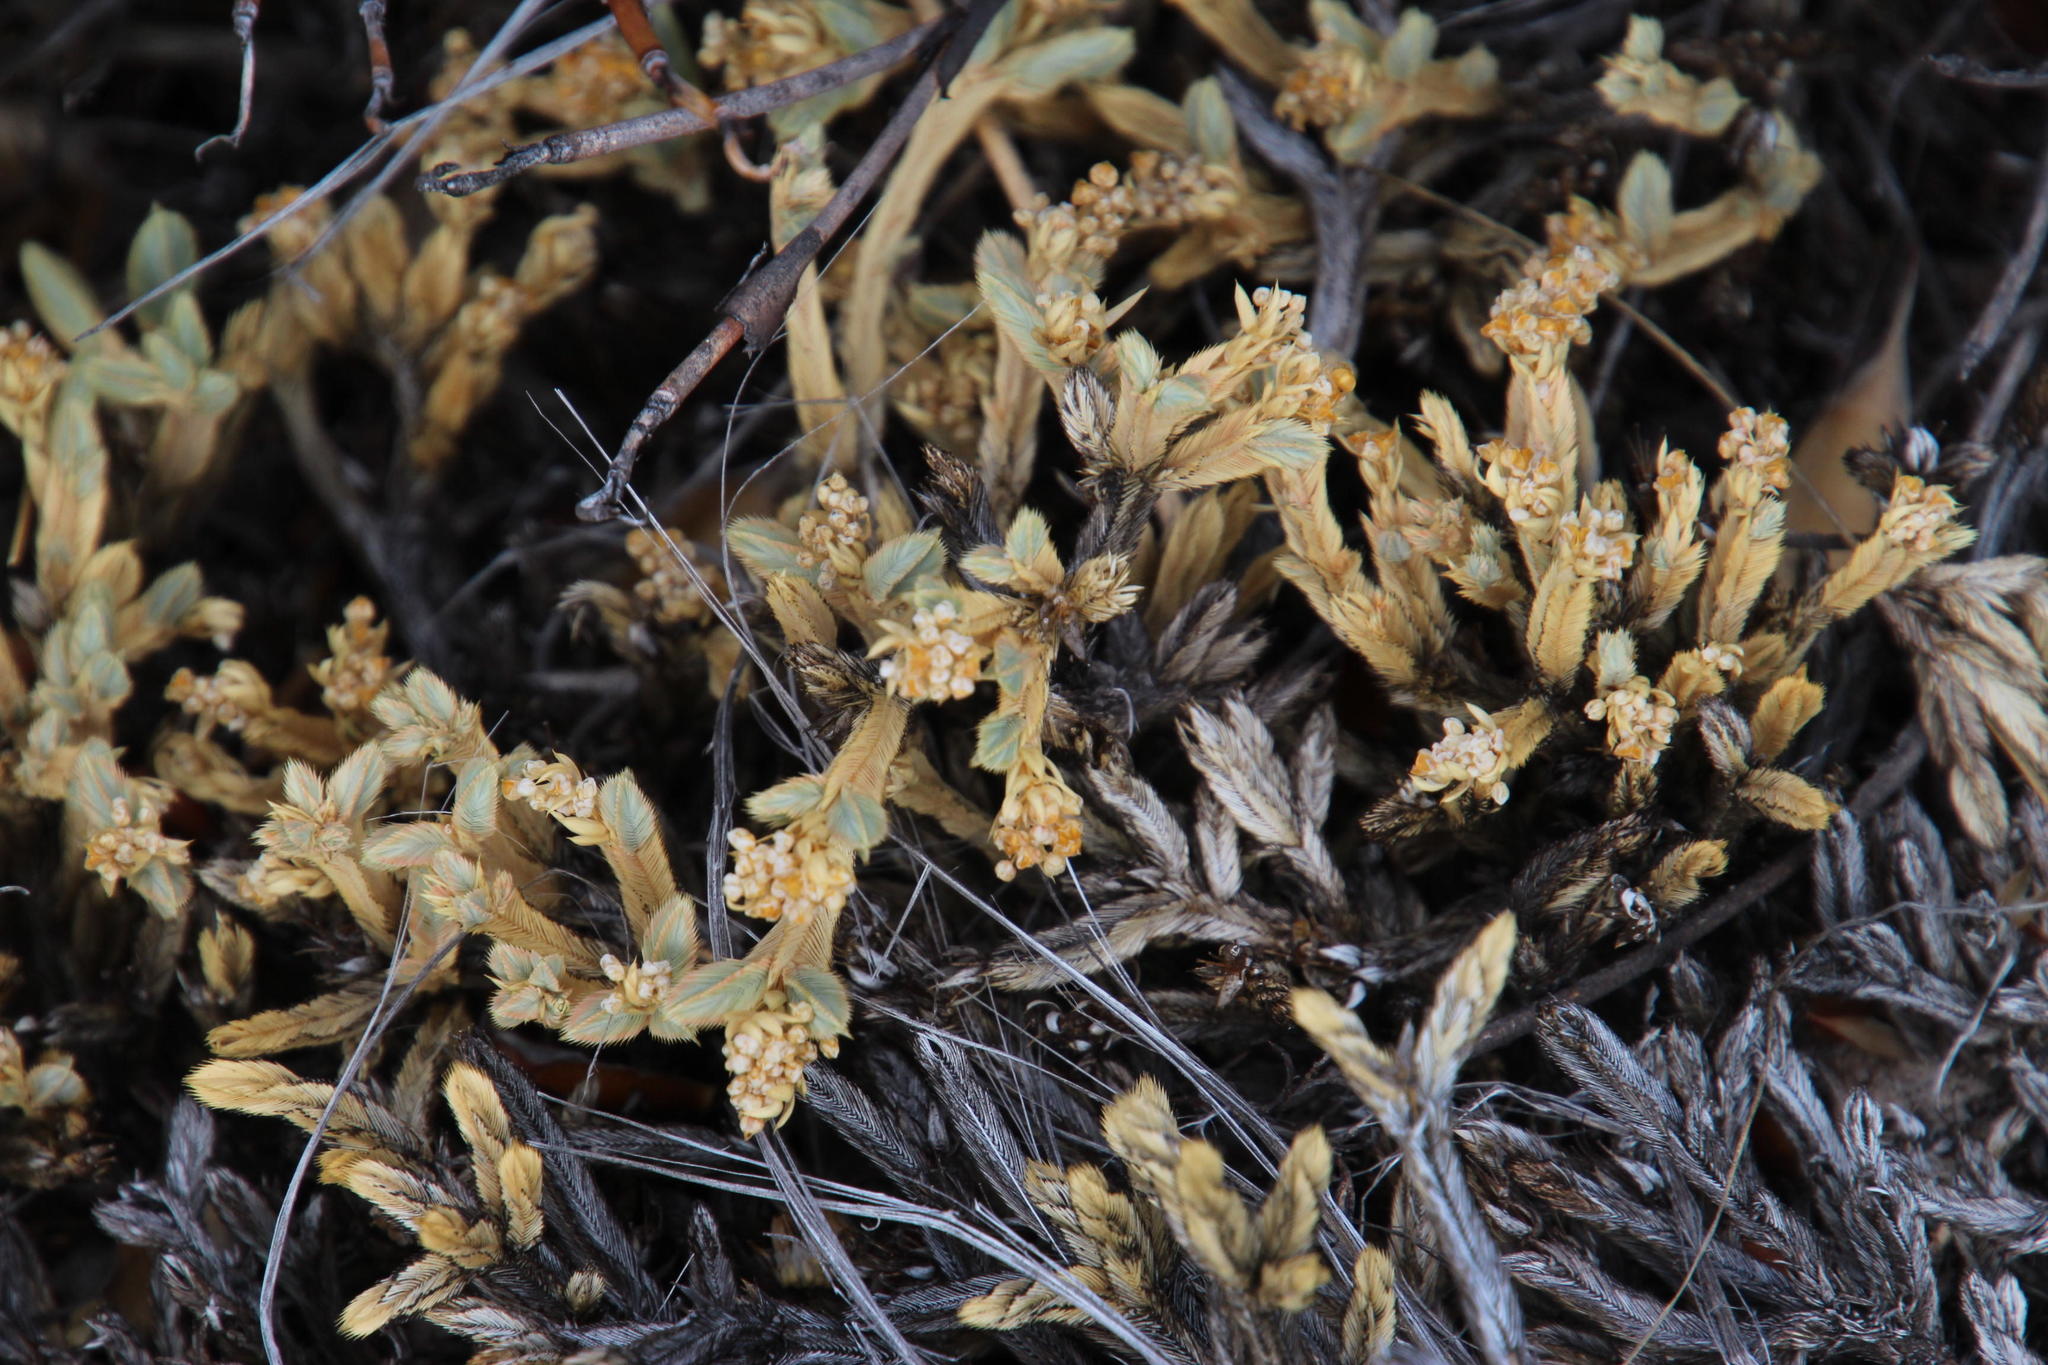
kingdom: Plantae
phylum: Tracheophyta
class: Magnoliopsida
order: Caryophyllales
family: Molluginaceae
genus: Psammotropha
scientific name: Psammotropha quadrangularis
